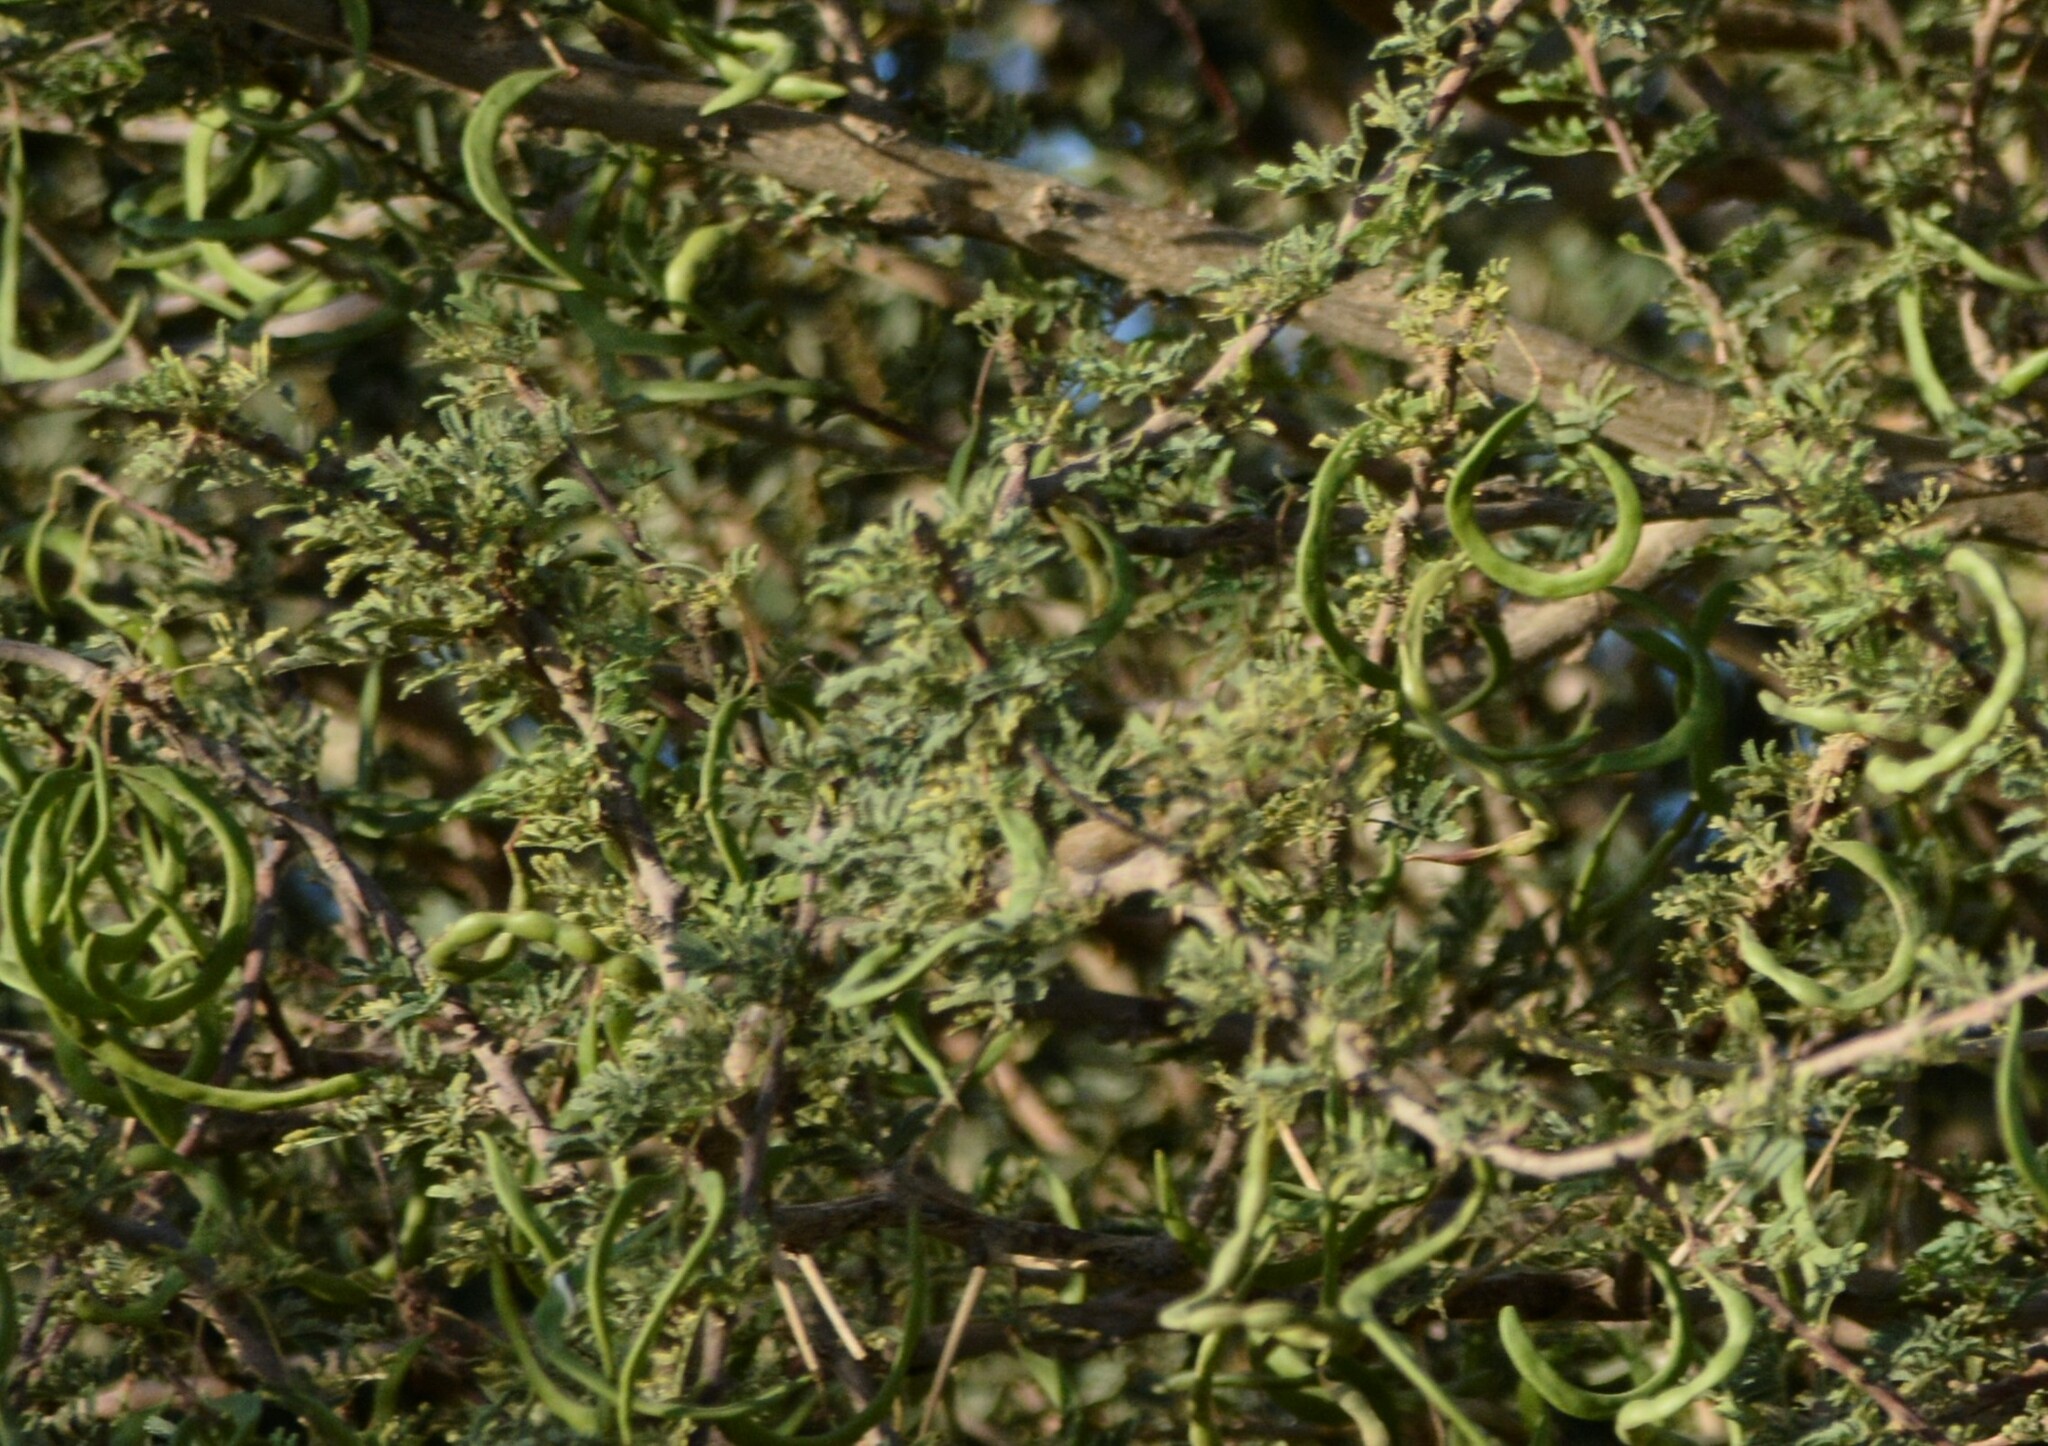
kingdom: Plantae
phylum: Tracheophyta
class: Magnoliopsida
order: Fabales
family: Fabaceae
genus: Vachellia
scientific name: Vachellia tortilis
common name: Umbrella thorn acacia
